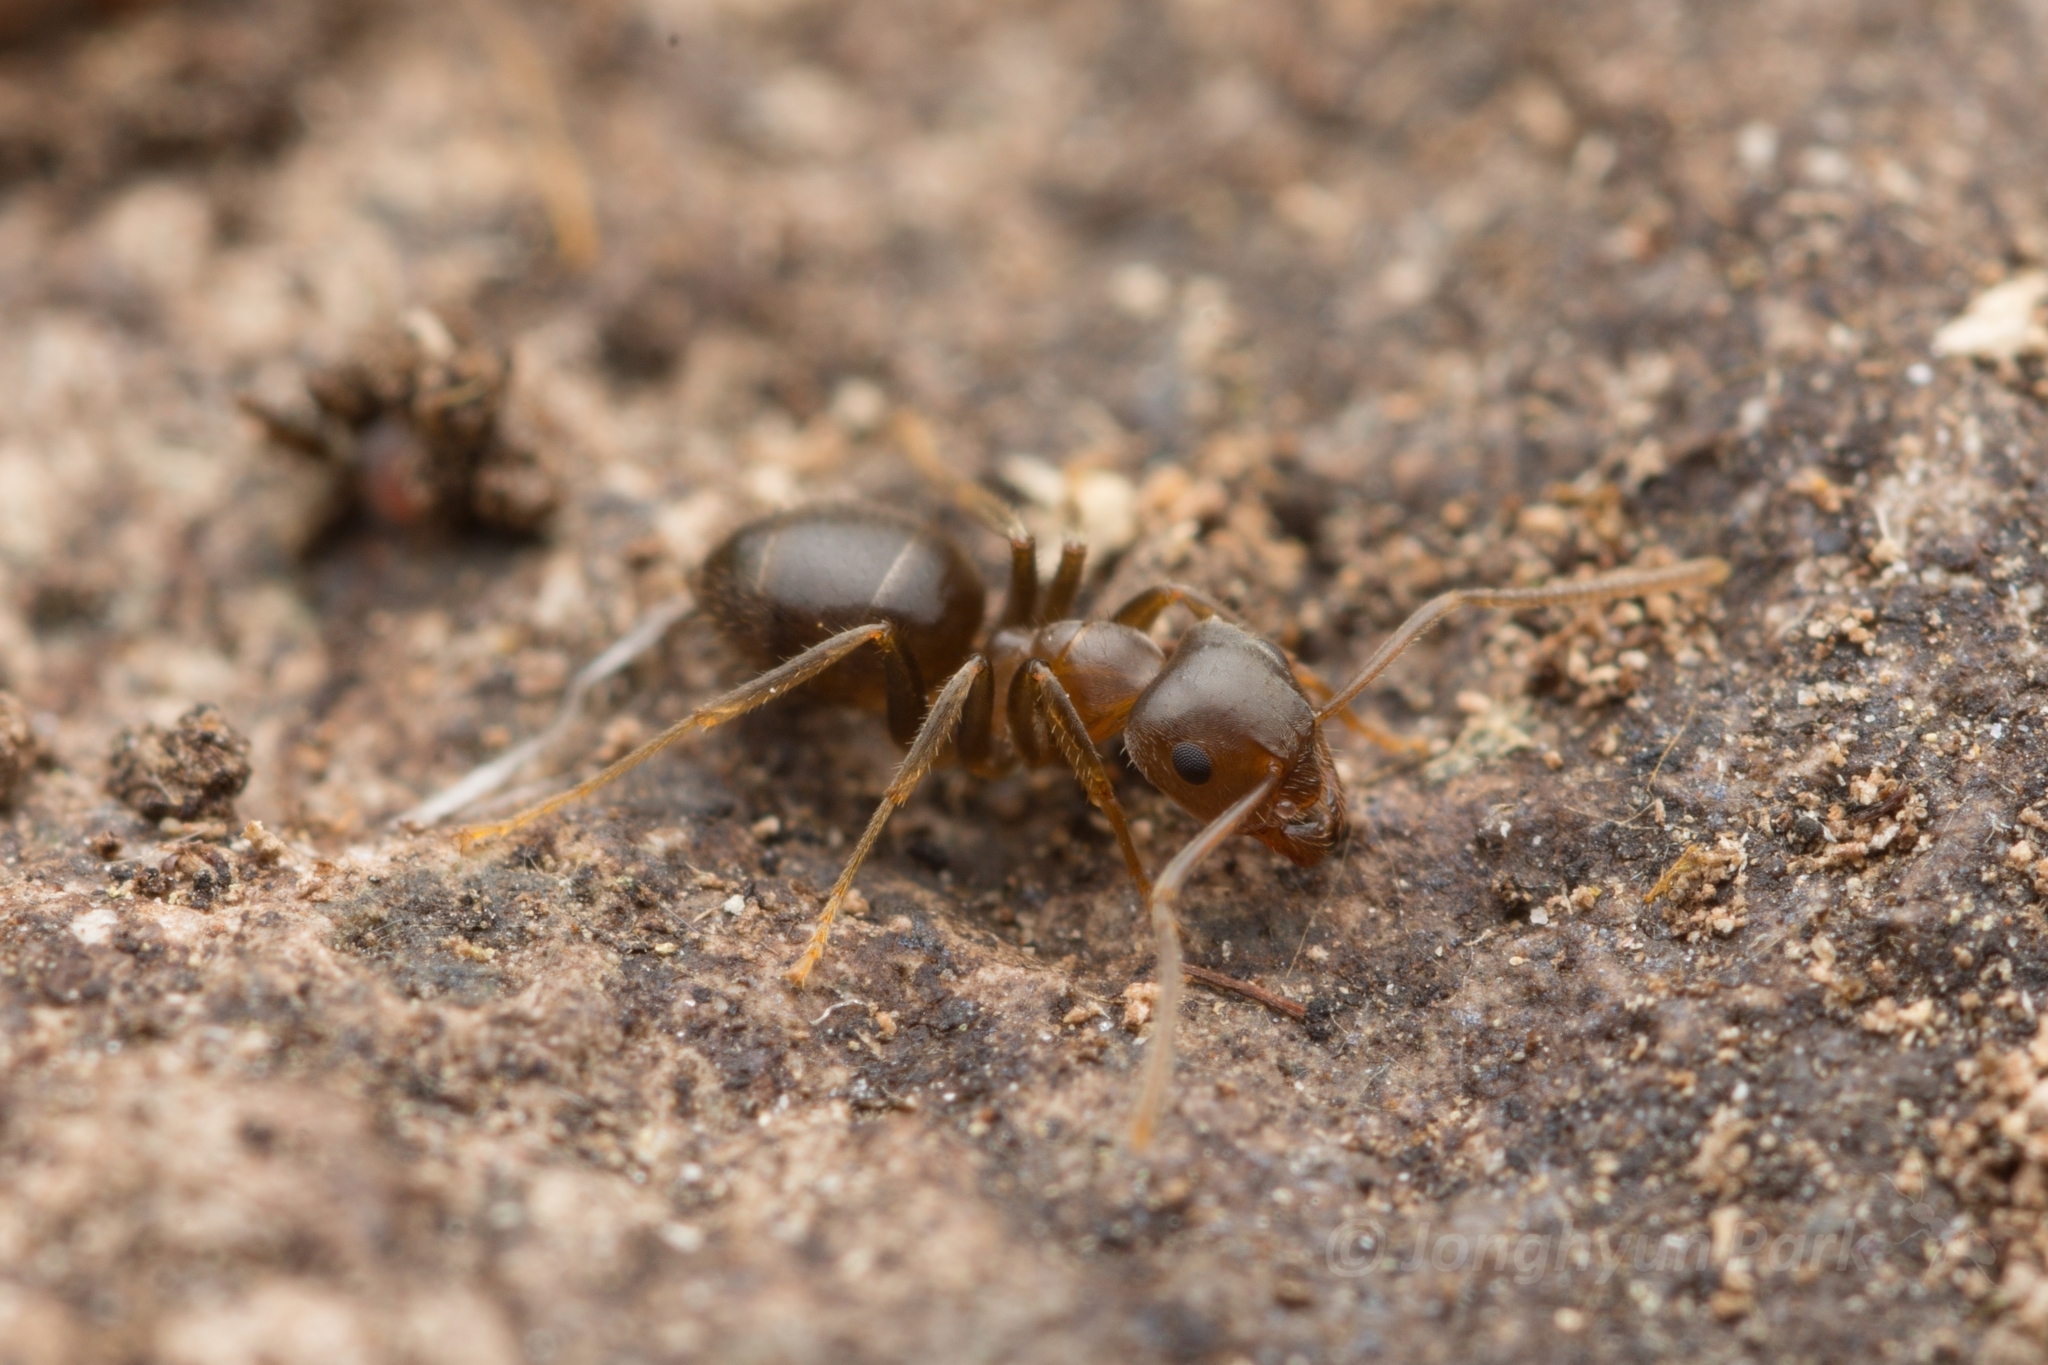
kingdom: Animalia
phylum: Arthropoda
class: Insecta
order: Hymenoptera
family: Formicidae
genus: Lasius
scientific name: Lasius hayashi
